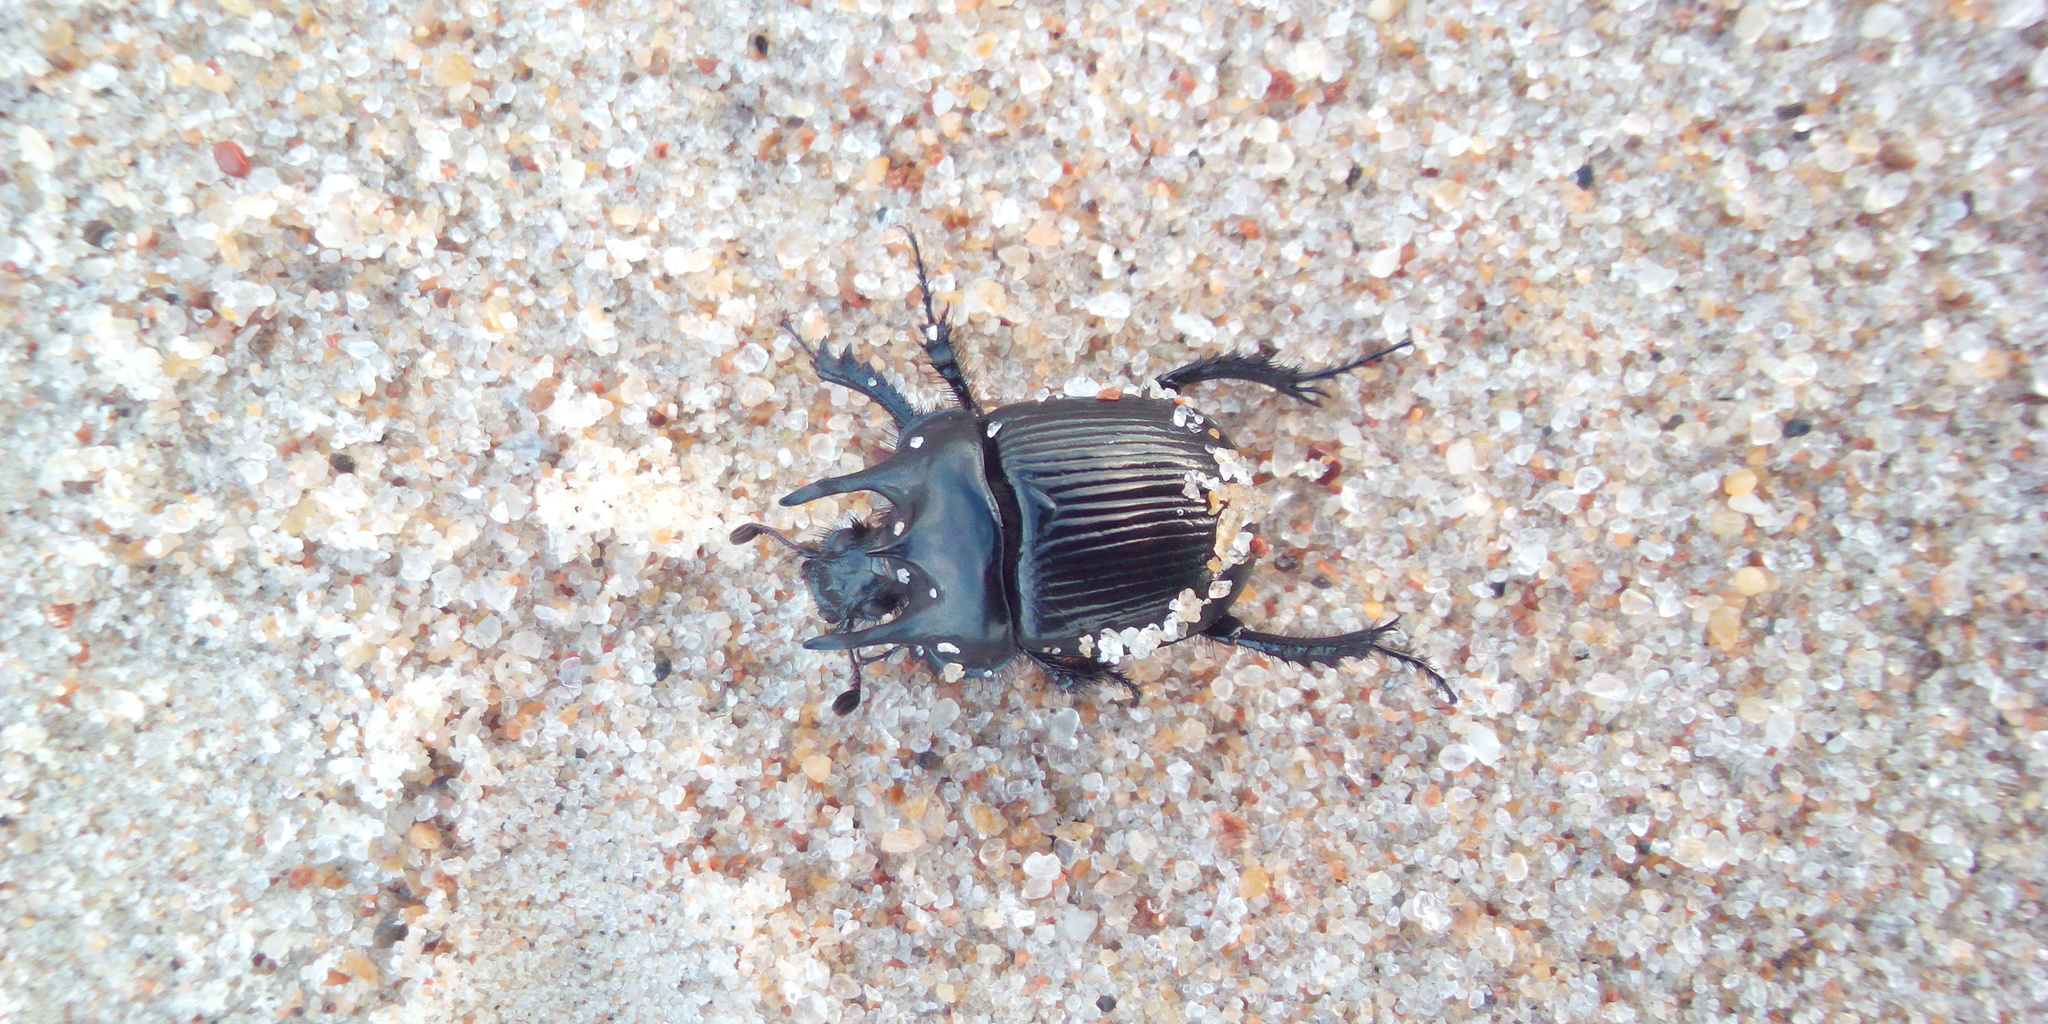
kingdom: Animalia
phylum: Arthropoda
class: Insecta
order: Coleoptera
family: Geotrupidae
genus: Typhaeus
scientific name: Typhaeus typhoeus
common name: Minotaur beetle
